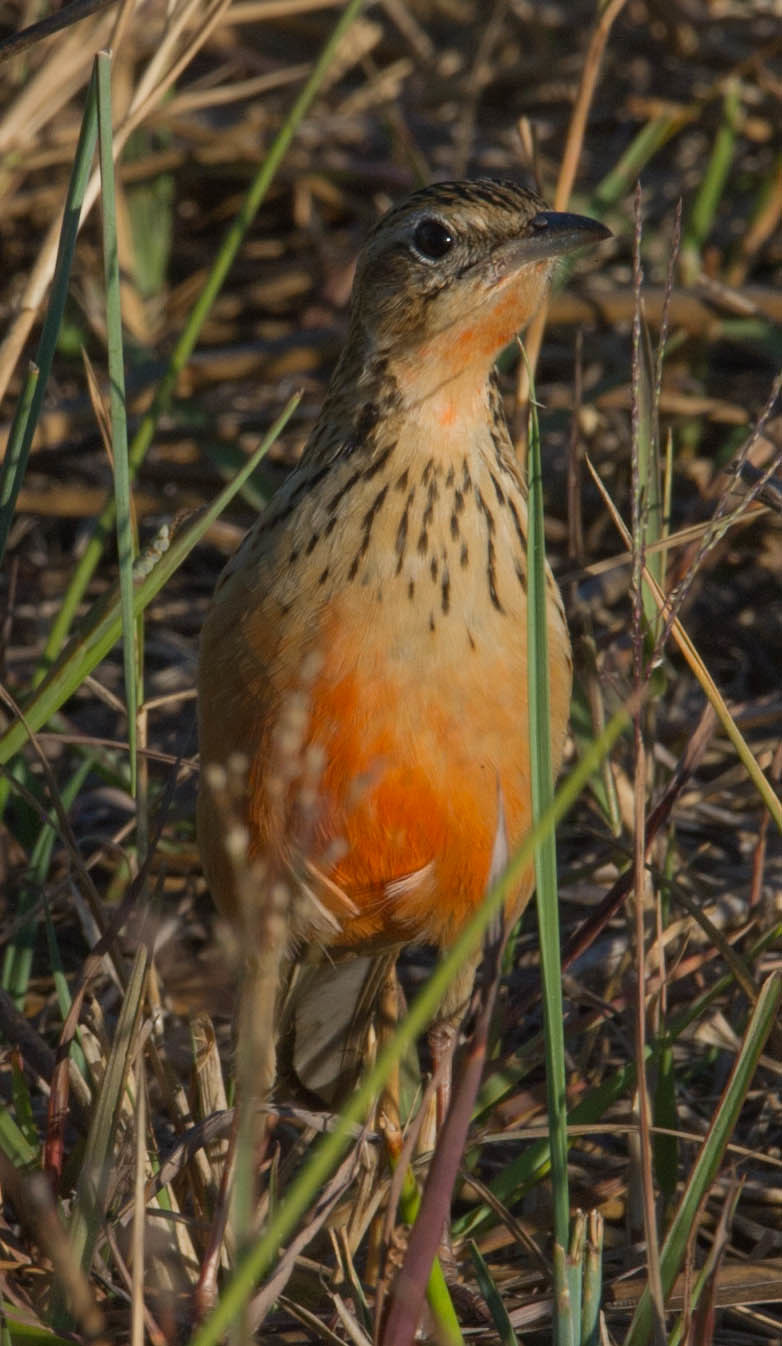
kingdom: Animalia
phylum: Chordata
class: Aves
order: Passeriformes
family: Motacillidae
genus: Macronyx
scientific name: Macronyx ameliae
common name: Rosy-throated longclaw
